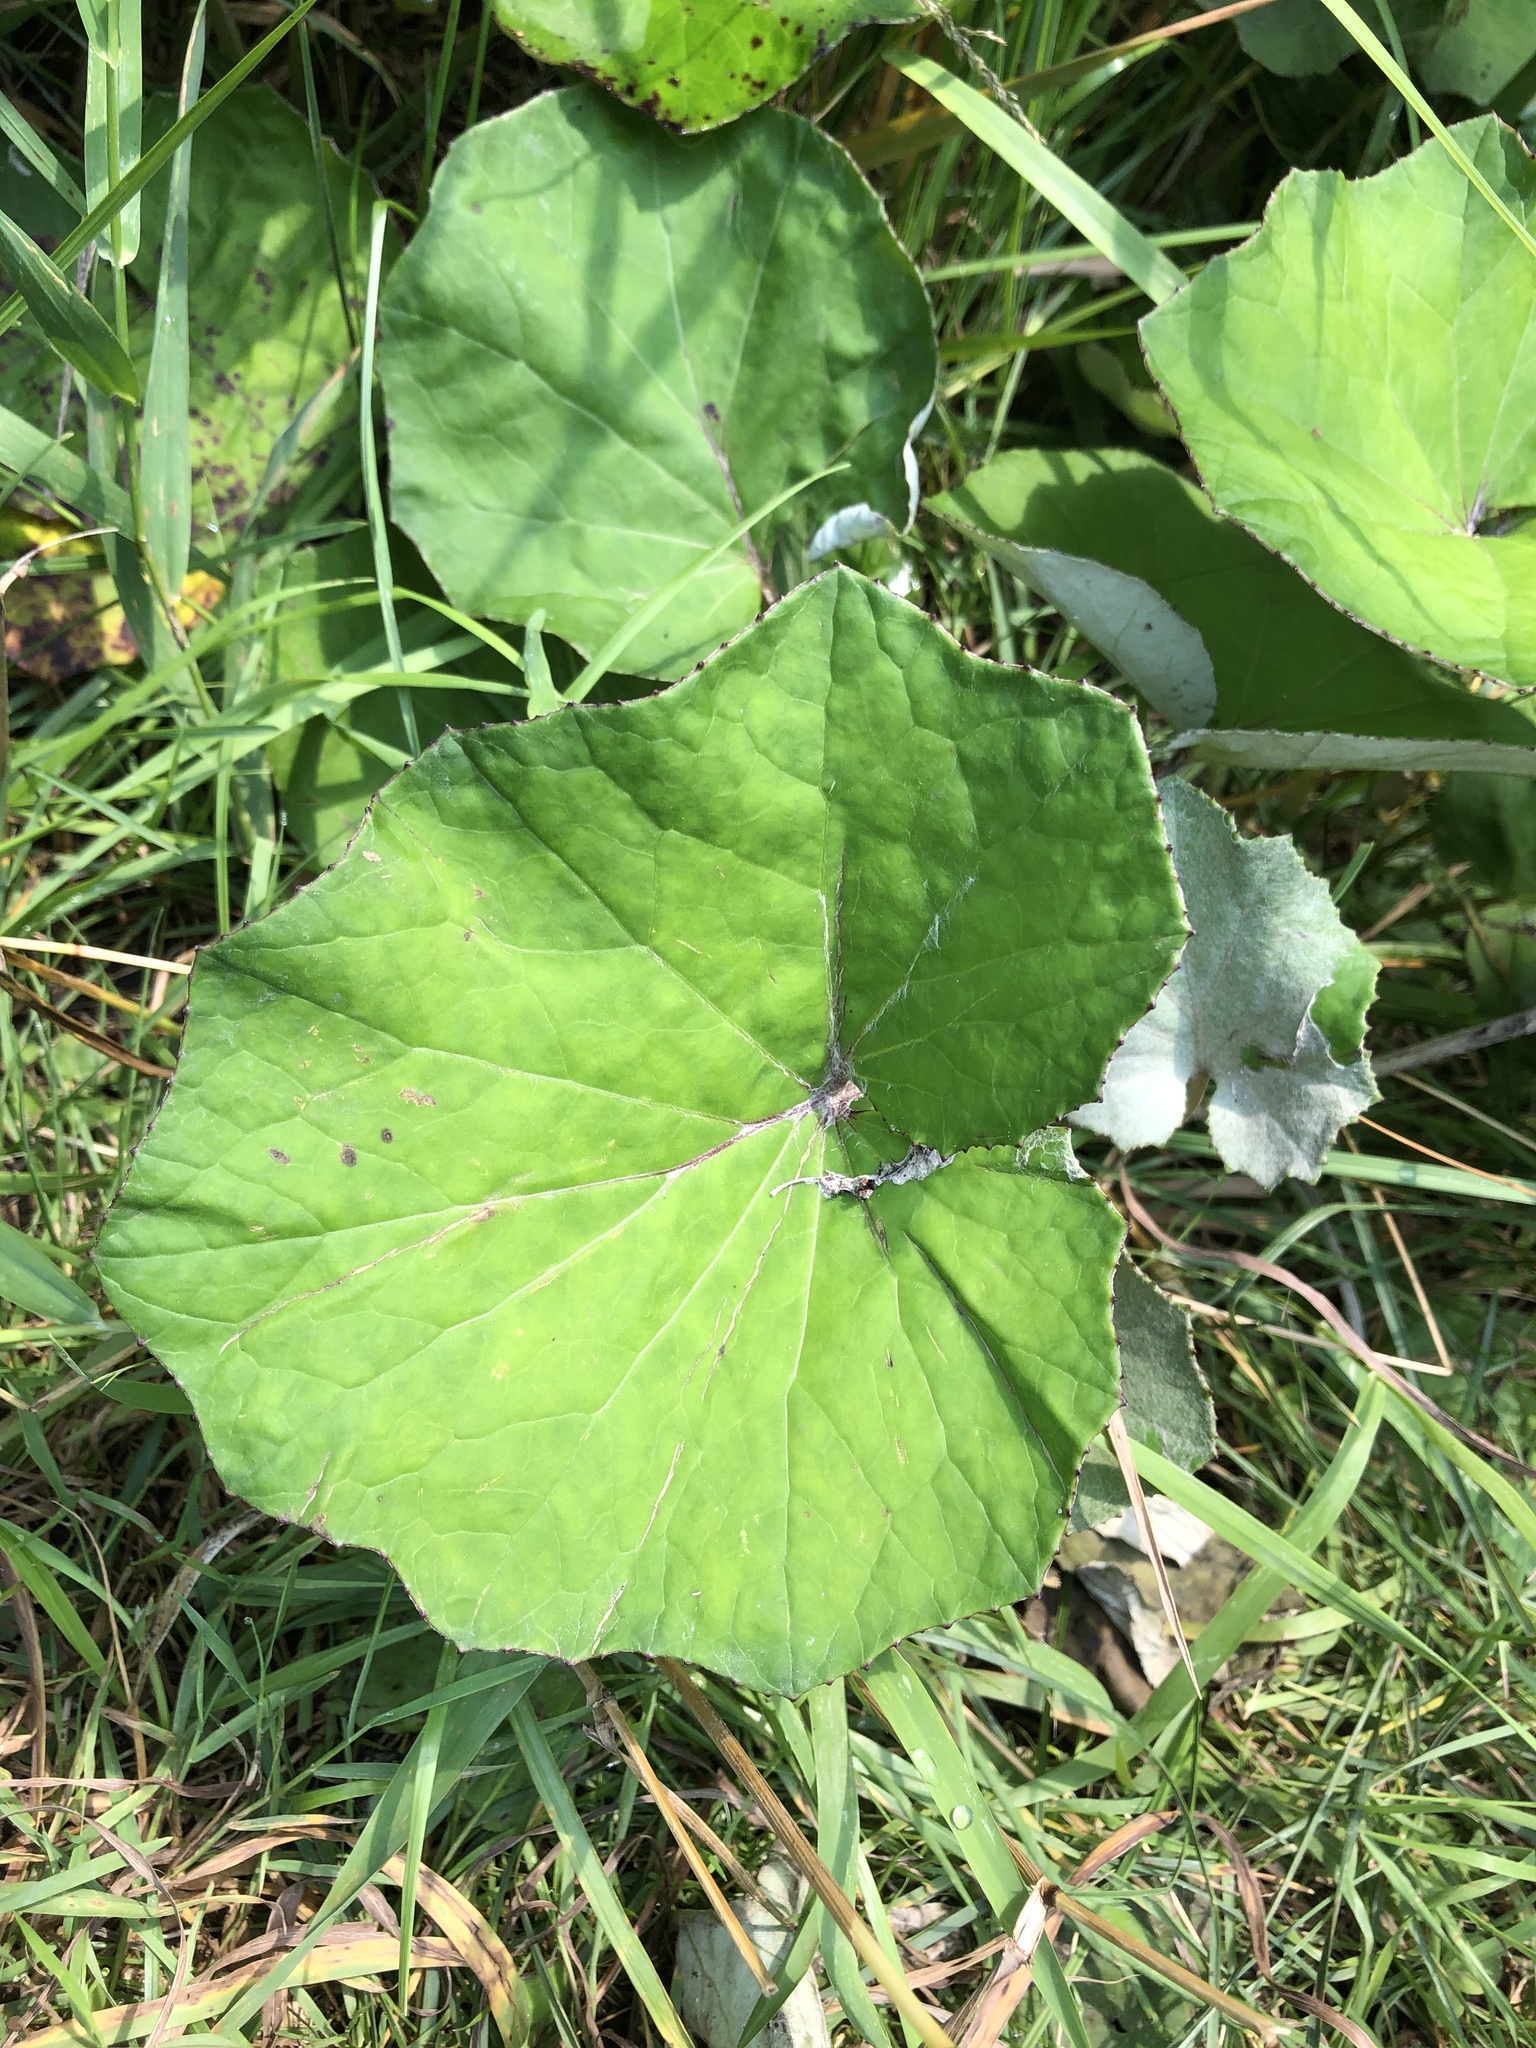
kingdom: Plantae
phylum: Tracheophyta
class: Magnoliopsida
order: Asterales
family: Asteraceae
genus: Tussilago
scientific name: Tussilago farfara
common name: Coltsfoot
